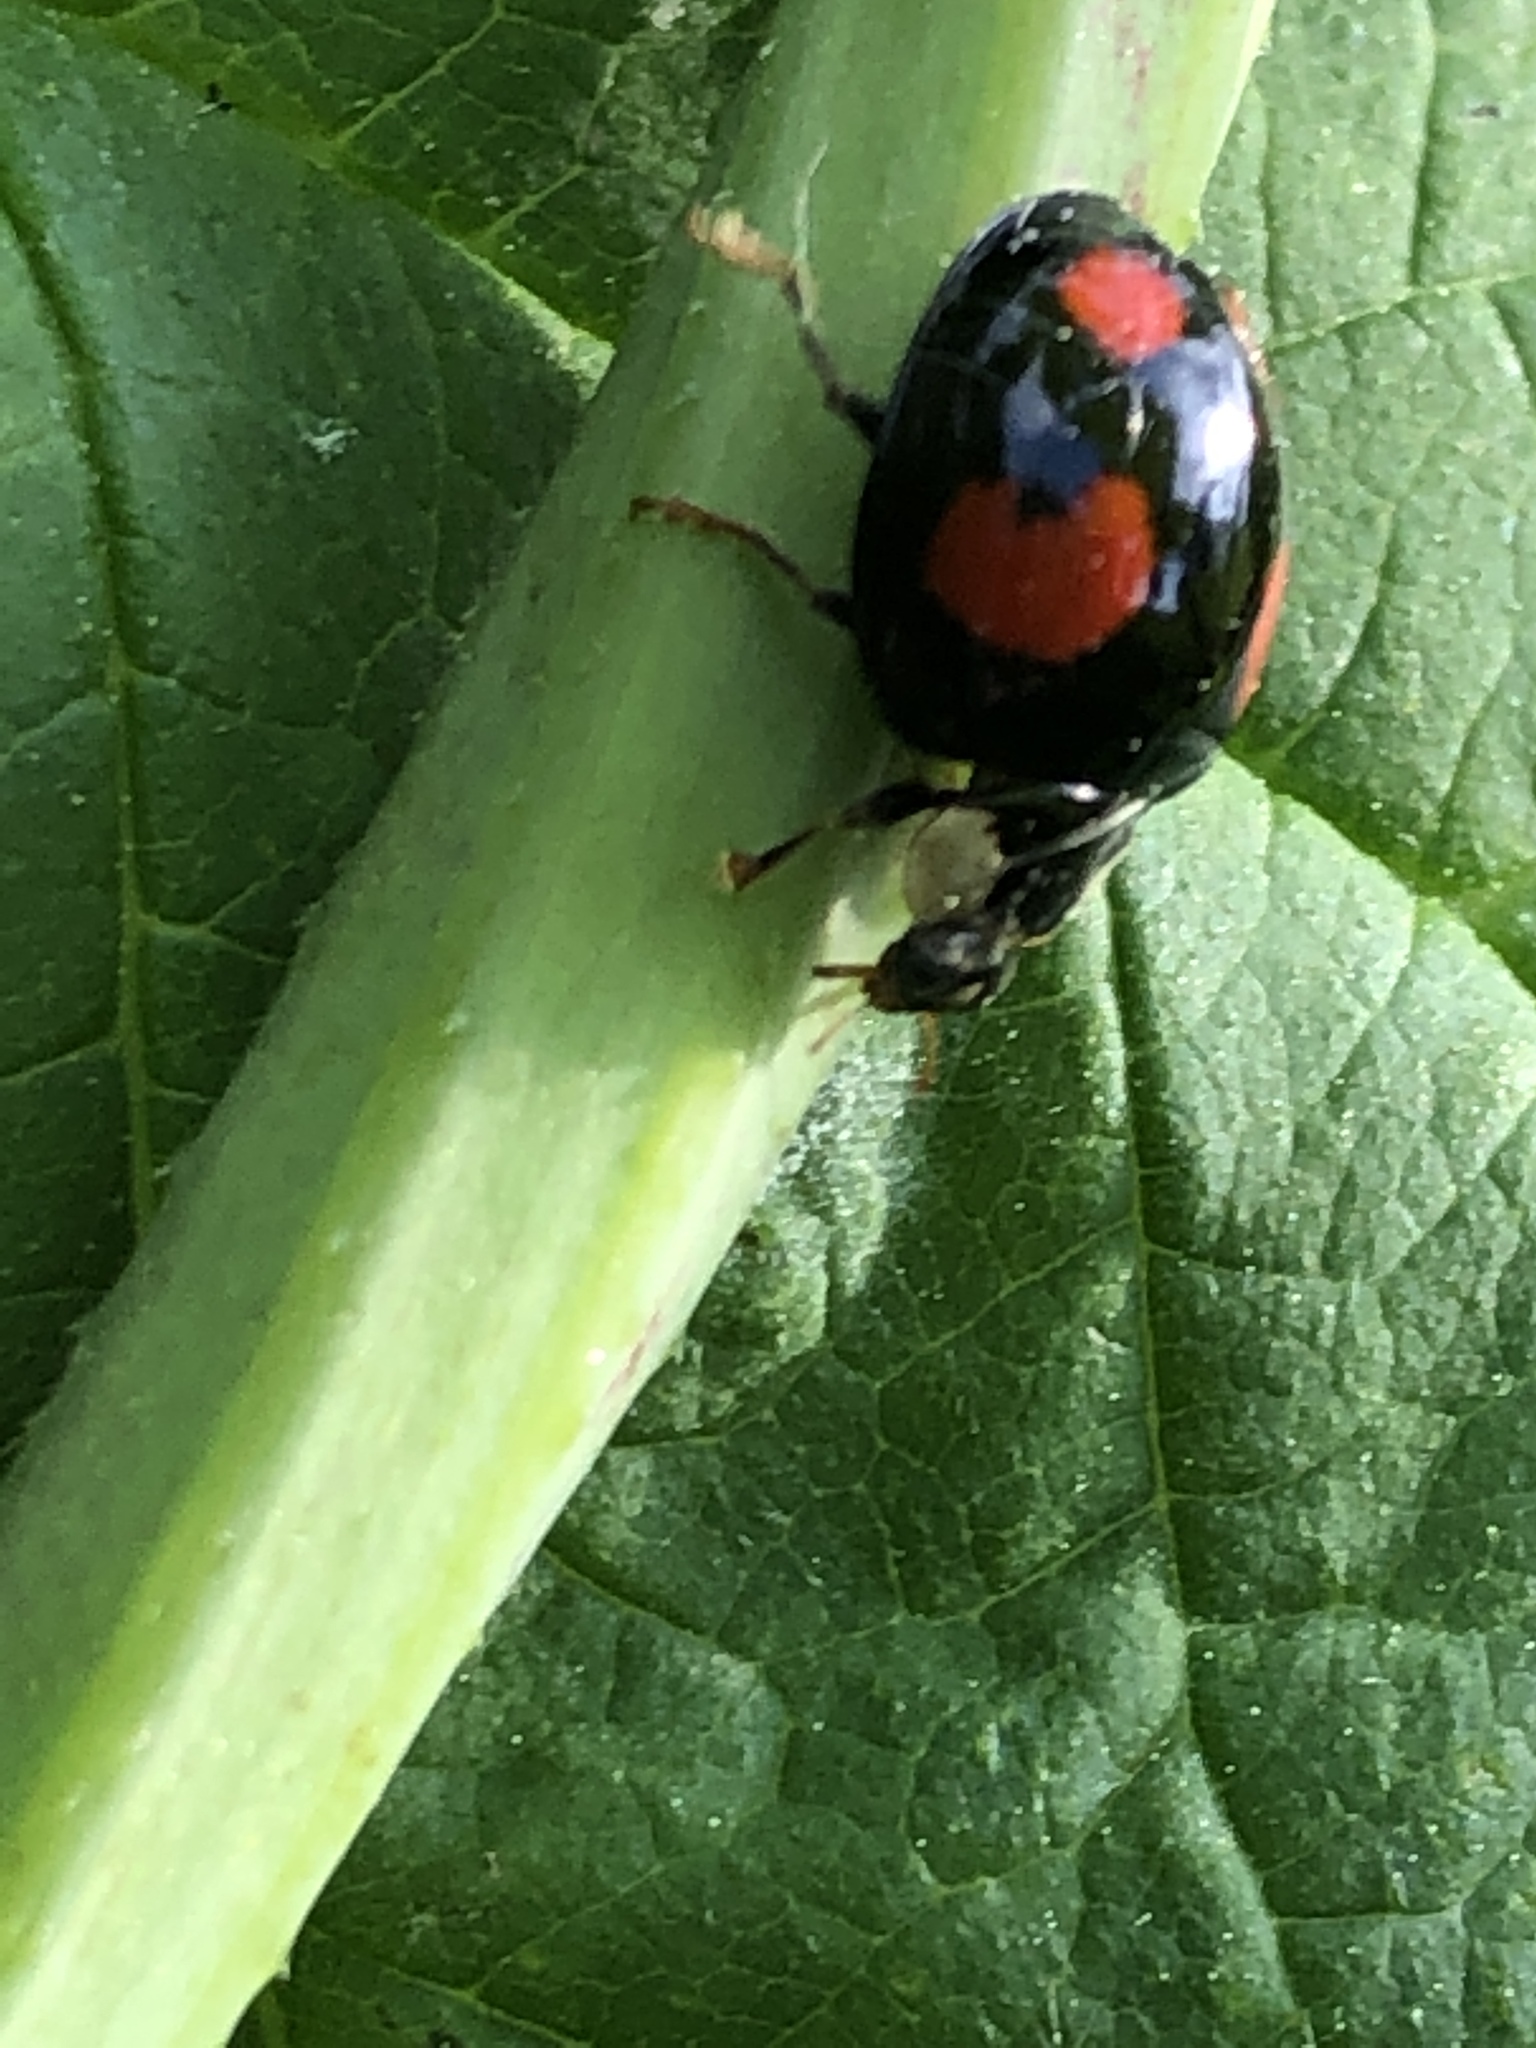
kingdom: Animalia
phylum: Arthropoda
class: Insecta
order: Coleoptera
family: Coccinellidae
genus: Harmonia
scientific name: Harmonia axyridis
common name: Harlequin ladybird
